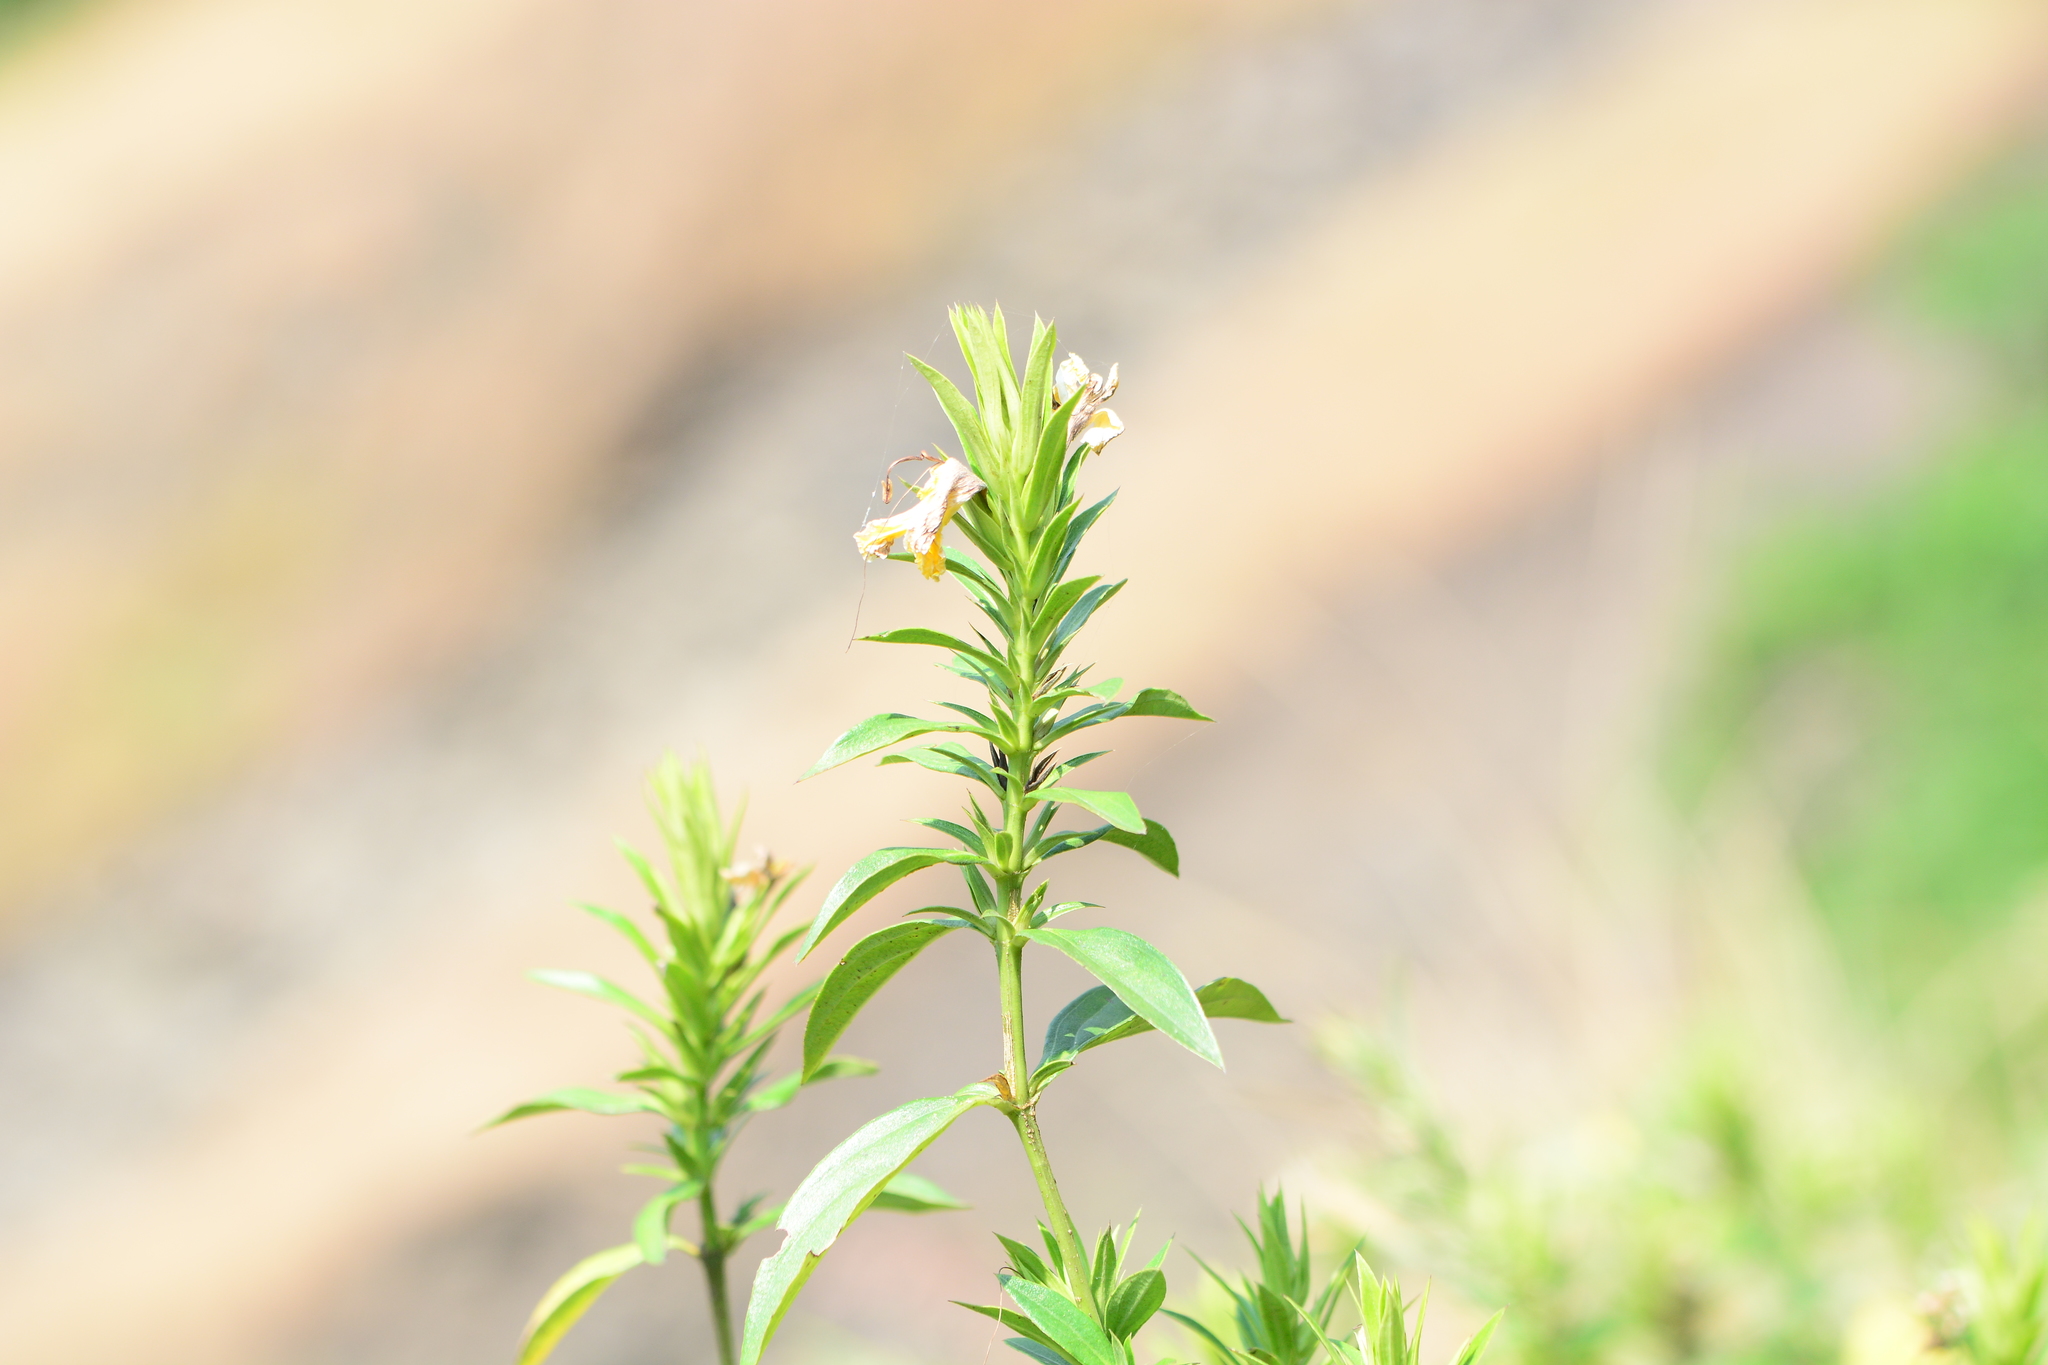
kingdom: Plantae
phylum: Tracheophyta
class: Magnoliopsida
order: Lamiales
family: Acanthaceae
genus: Barleria
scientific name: Barleria prionitis
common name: Barleria
